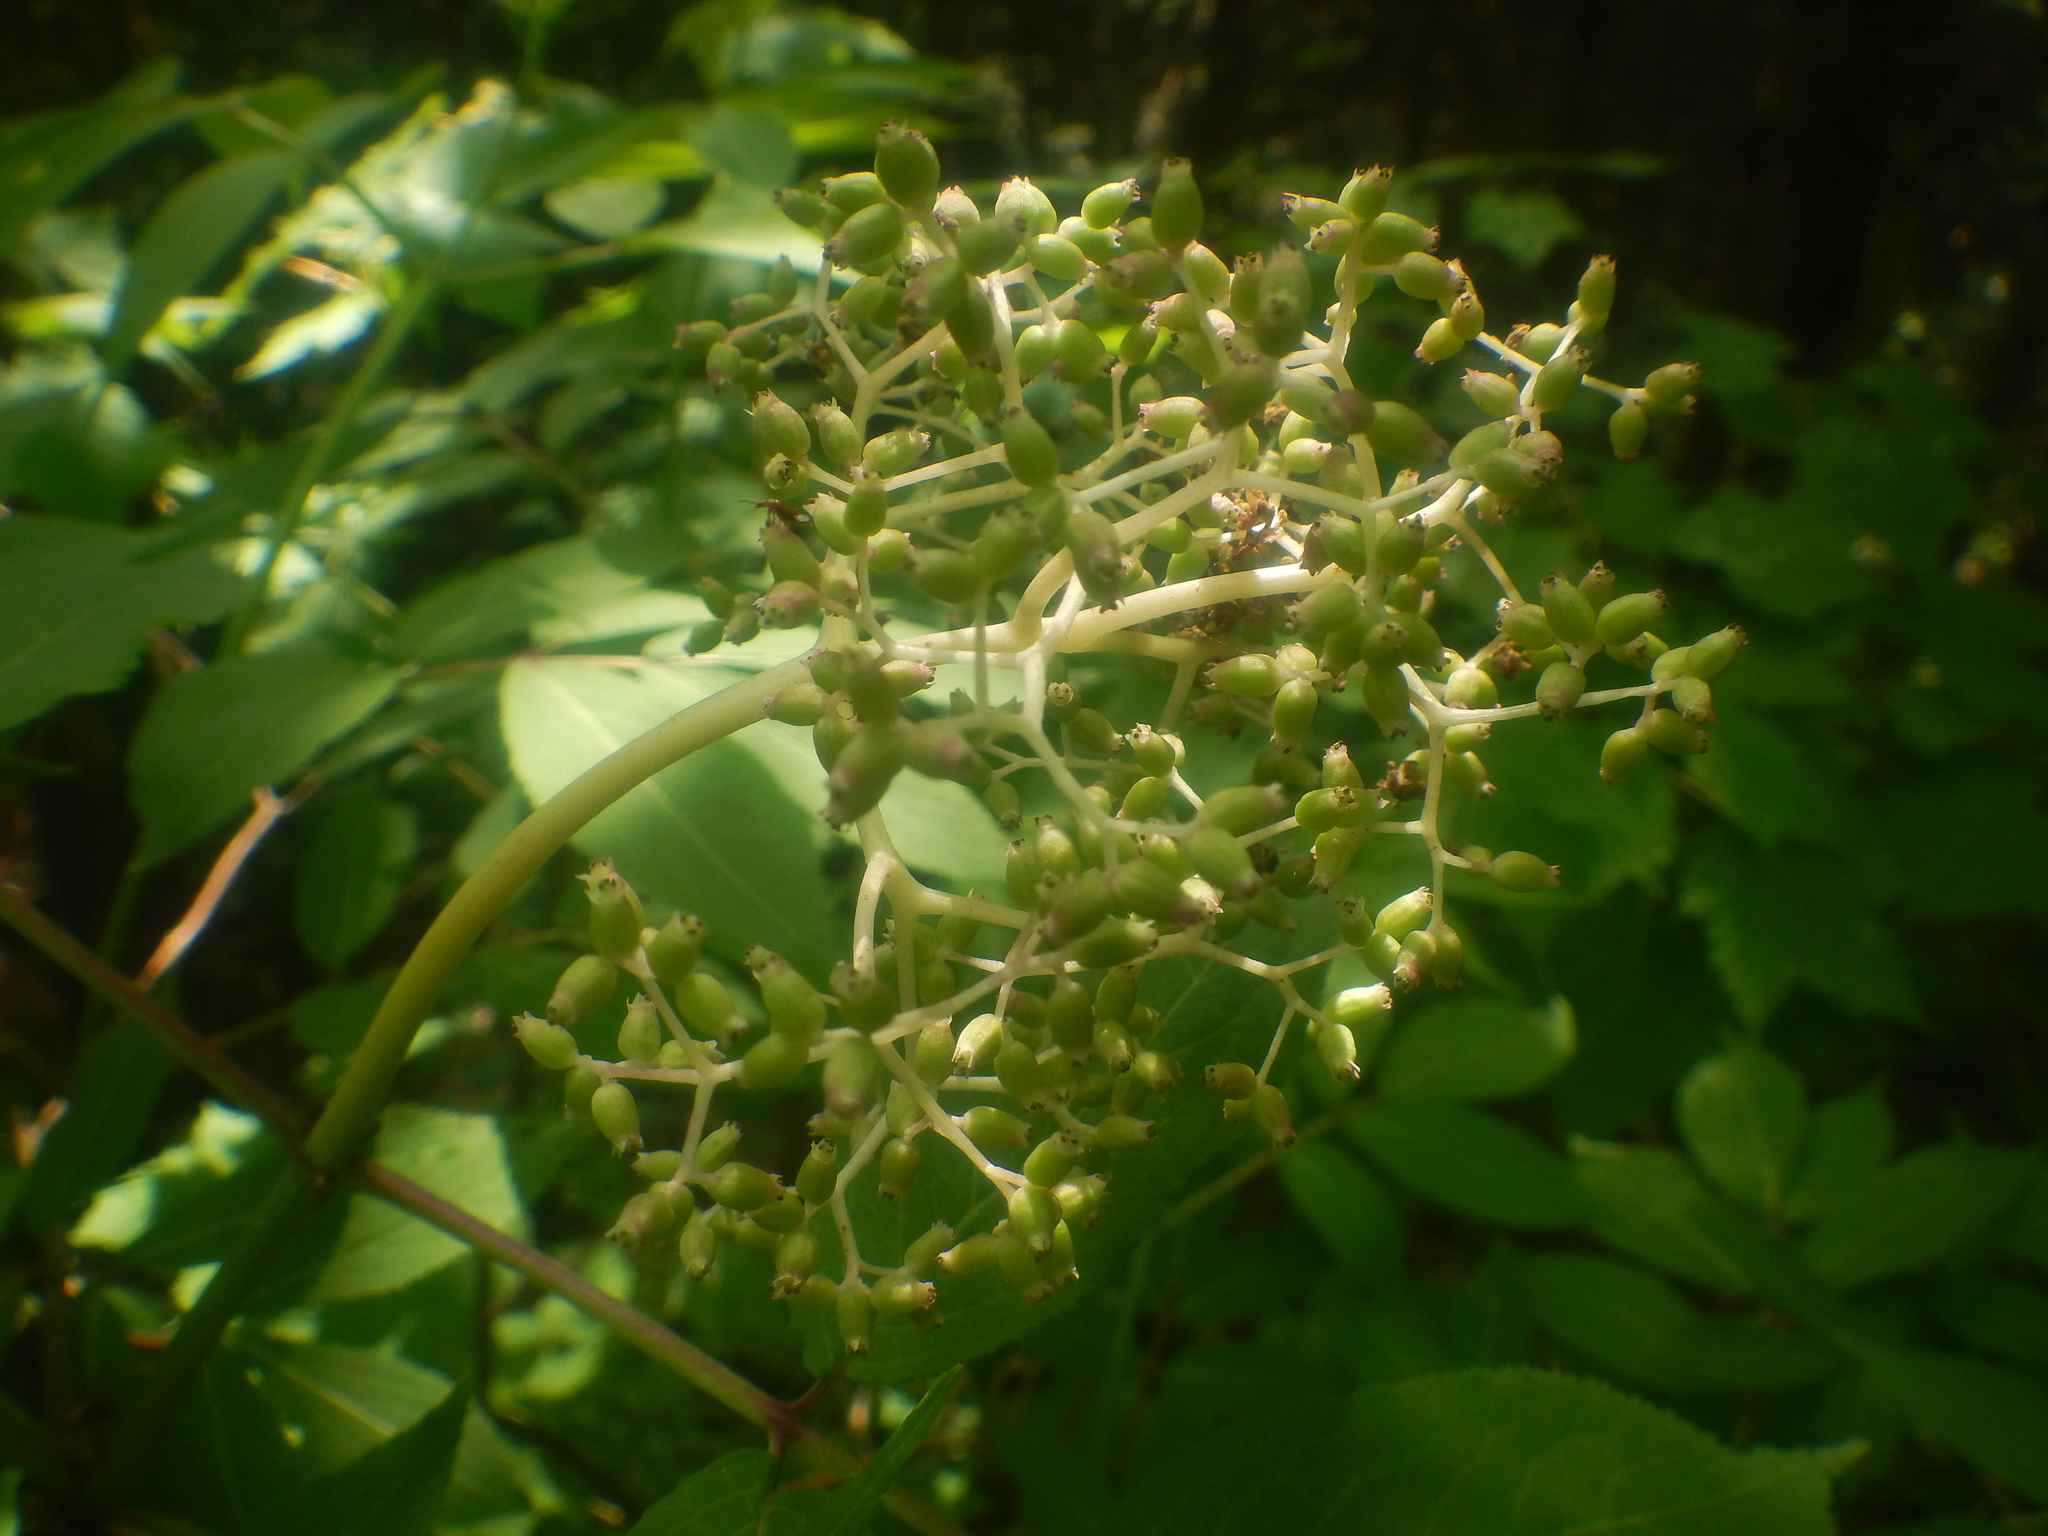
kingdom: Plantae
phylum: Tracheophyta
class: Magnoliopsida
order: Dipsacales
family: Viburnaceae
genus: Sambucus
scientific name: Sambucus racemosa
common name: Red-berried elder
